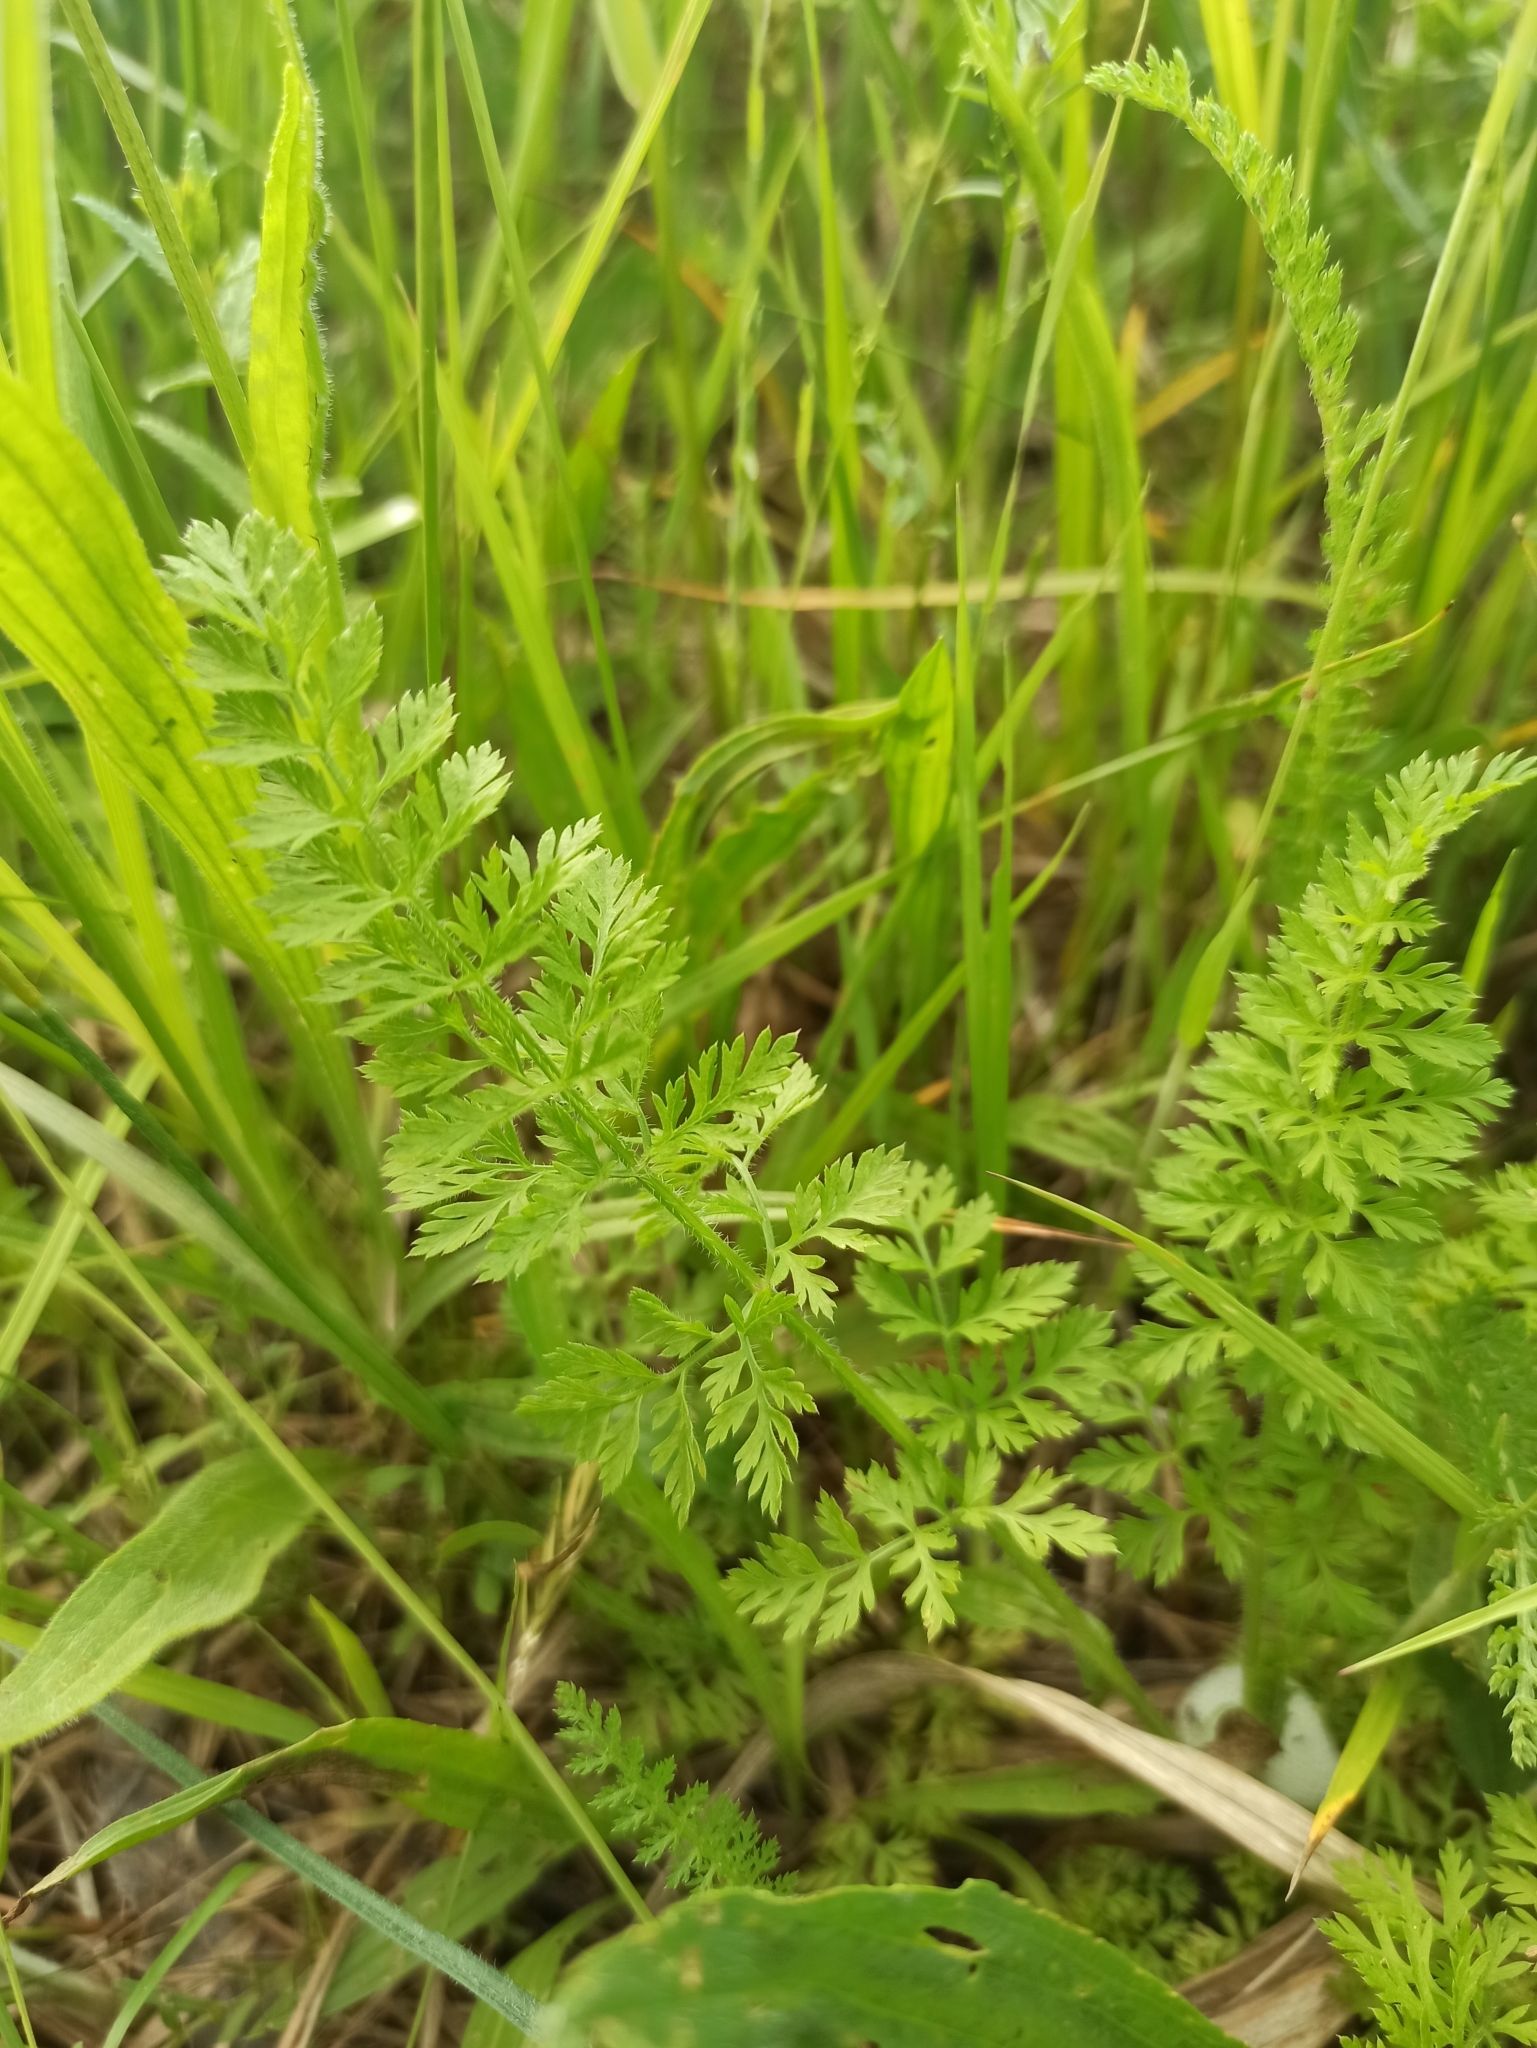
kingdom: Plantae
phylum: Tracheophyta
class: Magnoliopsida
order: Apiales
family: Apiaceae
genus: Daucus
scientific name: Daucus carota
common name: Wild carrot
